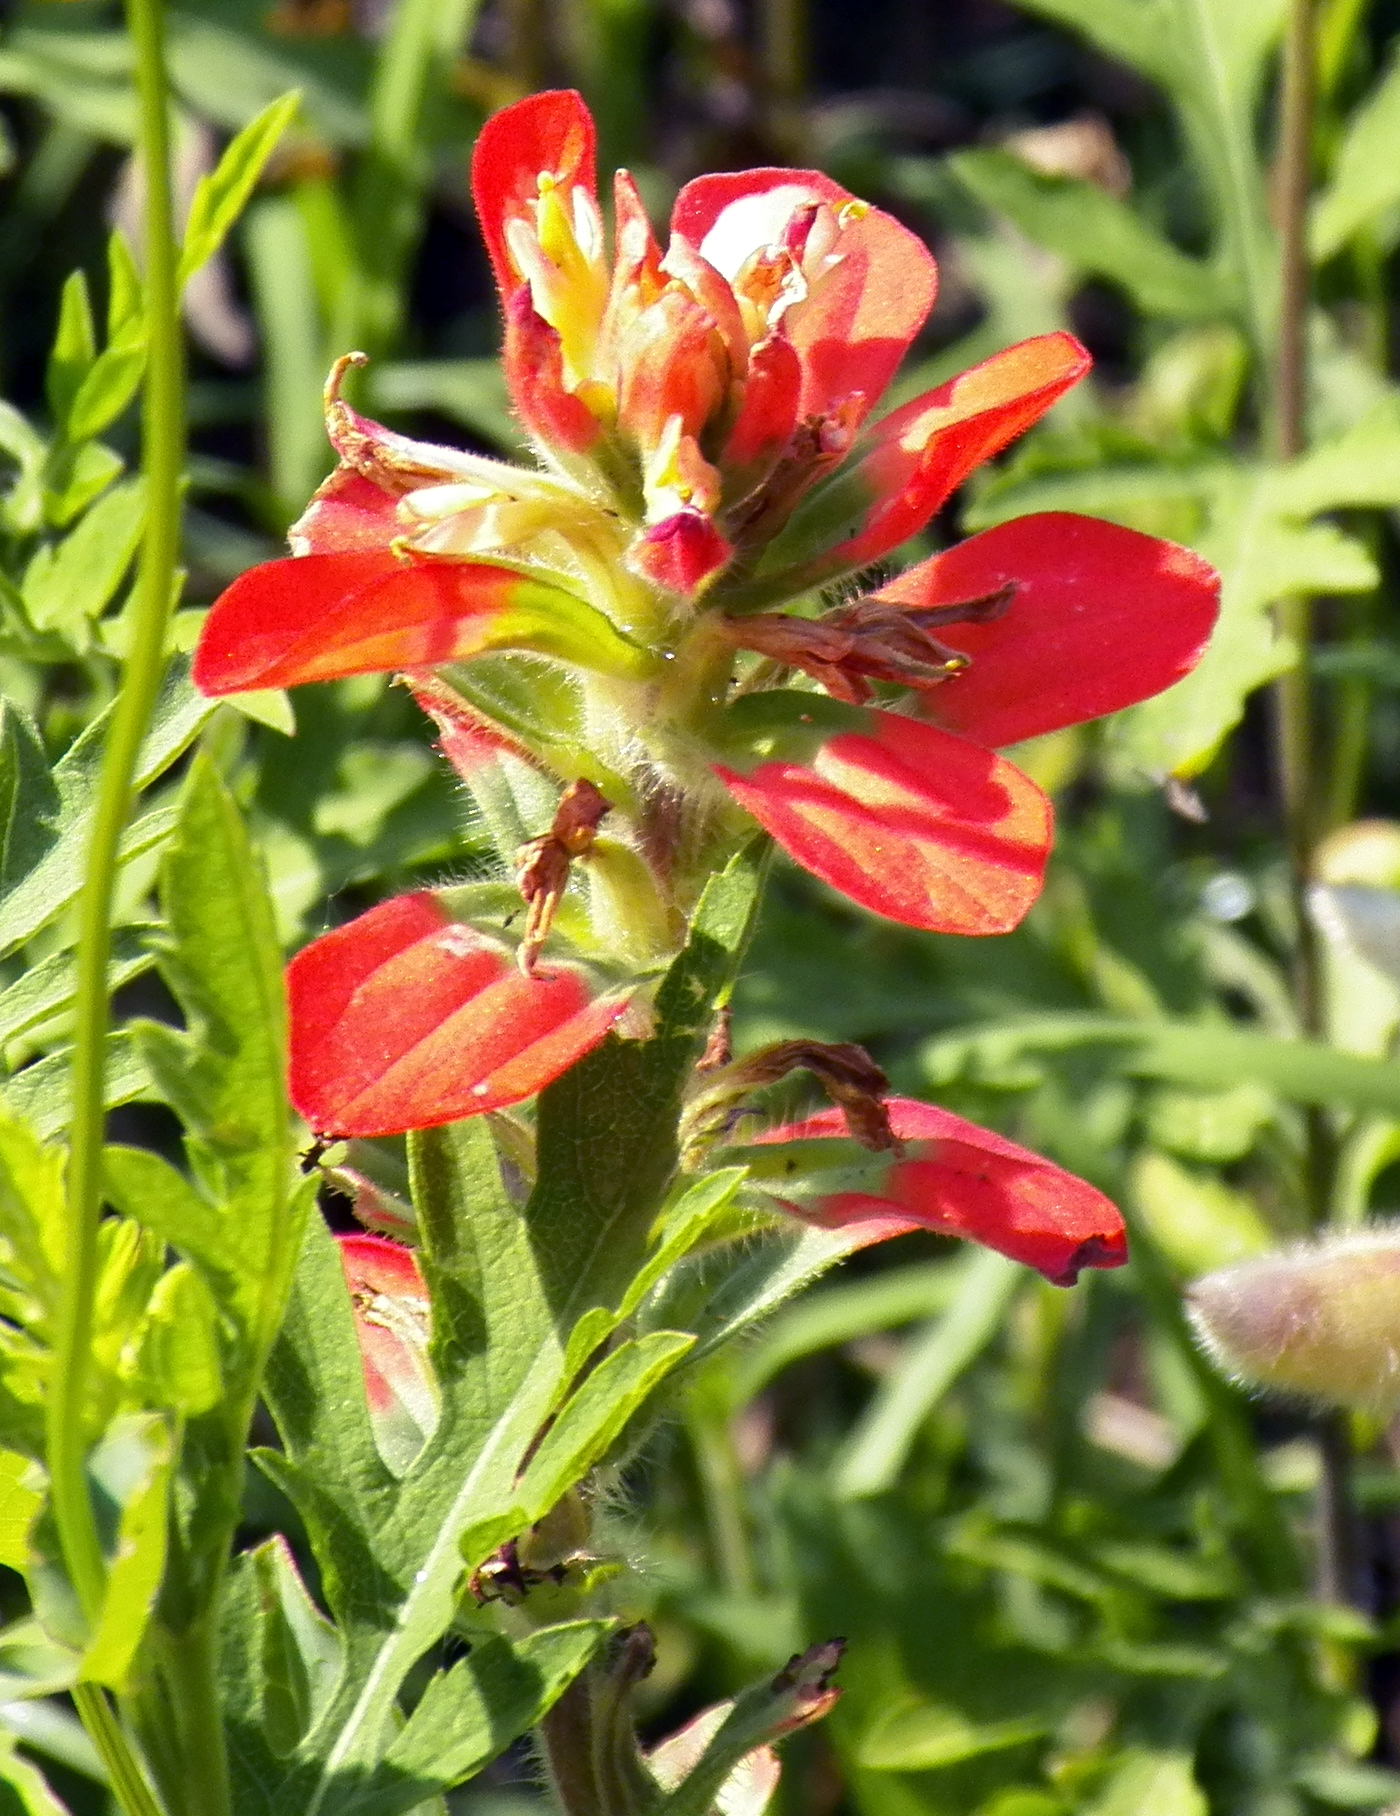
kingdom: Plantae
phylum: Tracheophyta
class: Magnoliopsida
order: Lamiales
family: Orobanchaceae
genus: Castilleja
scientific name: Castilleja indivisa
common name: Texas paintbrush
